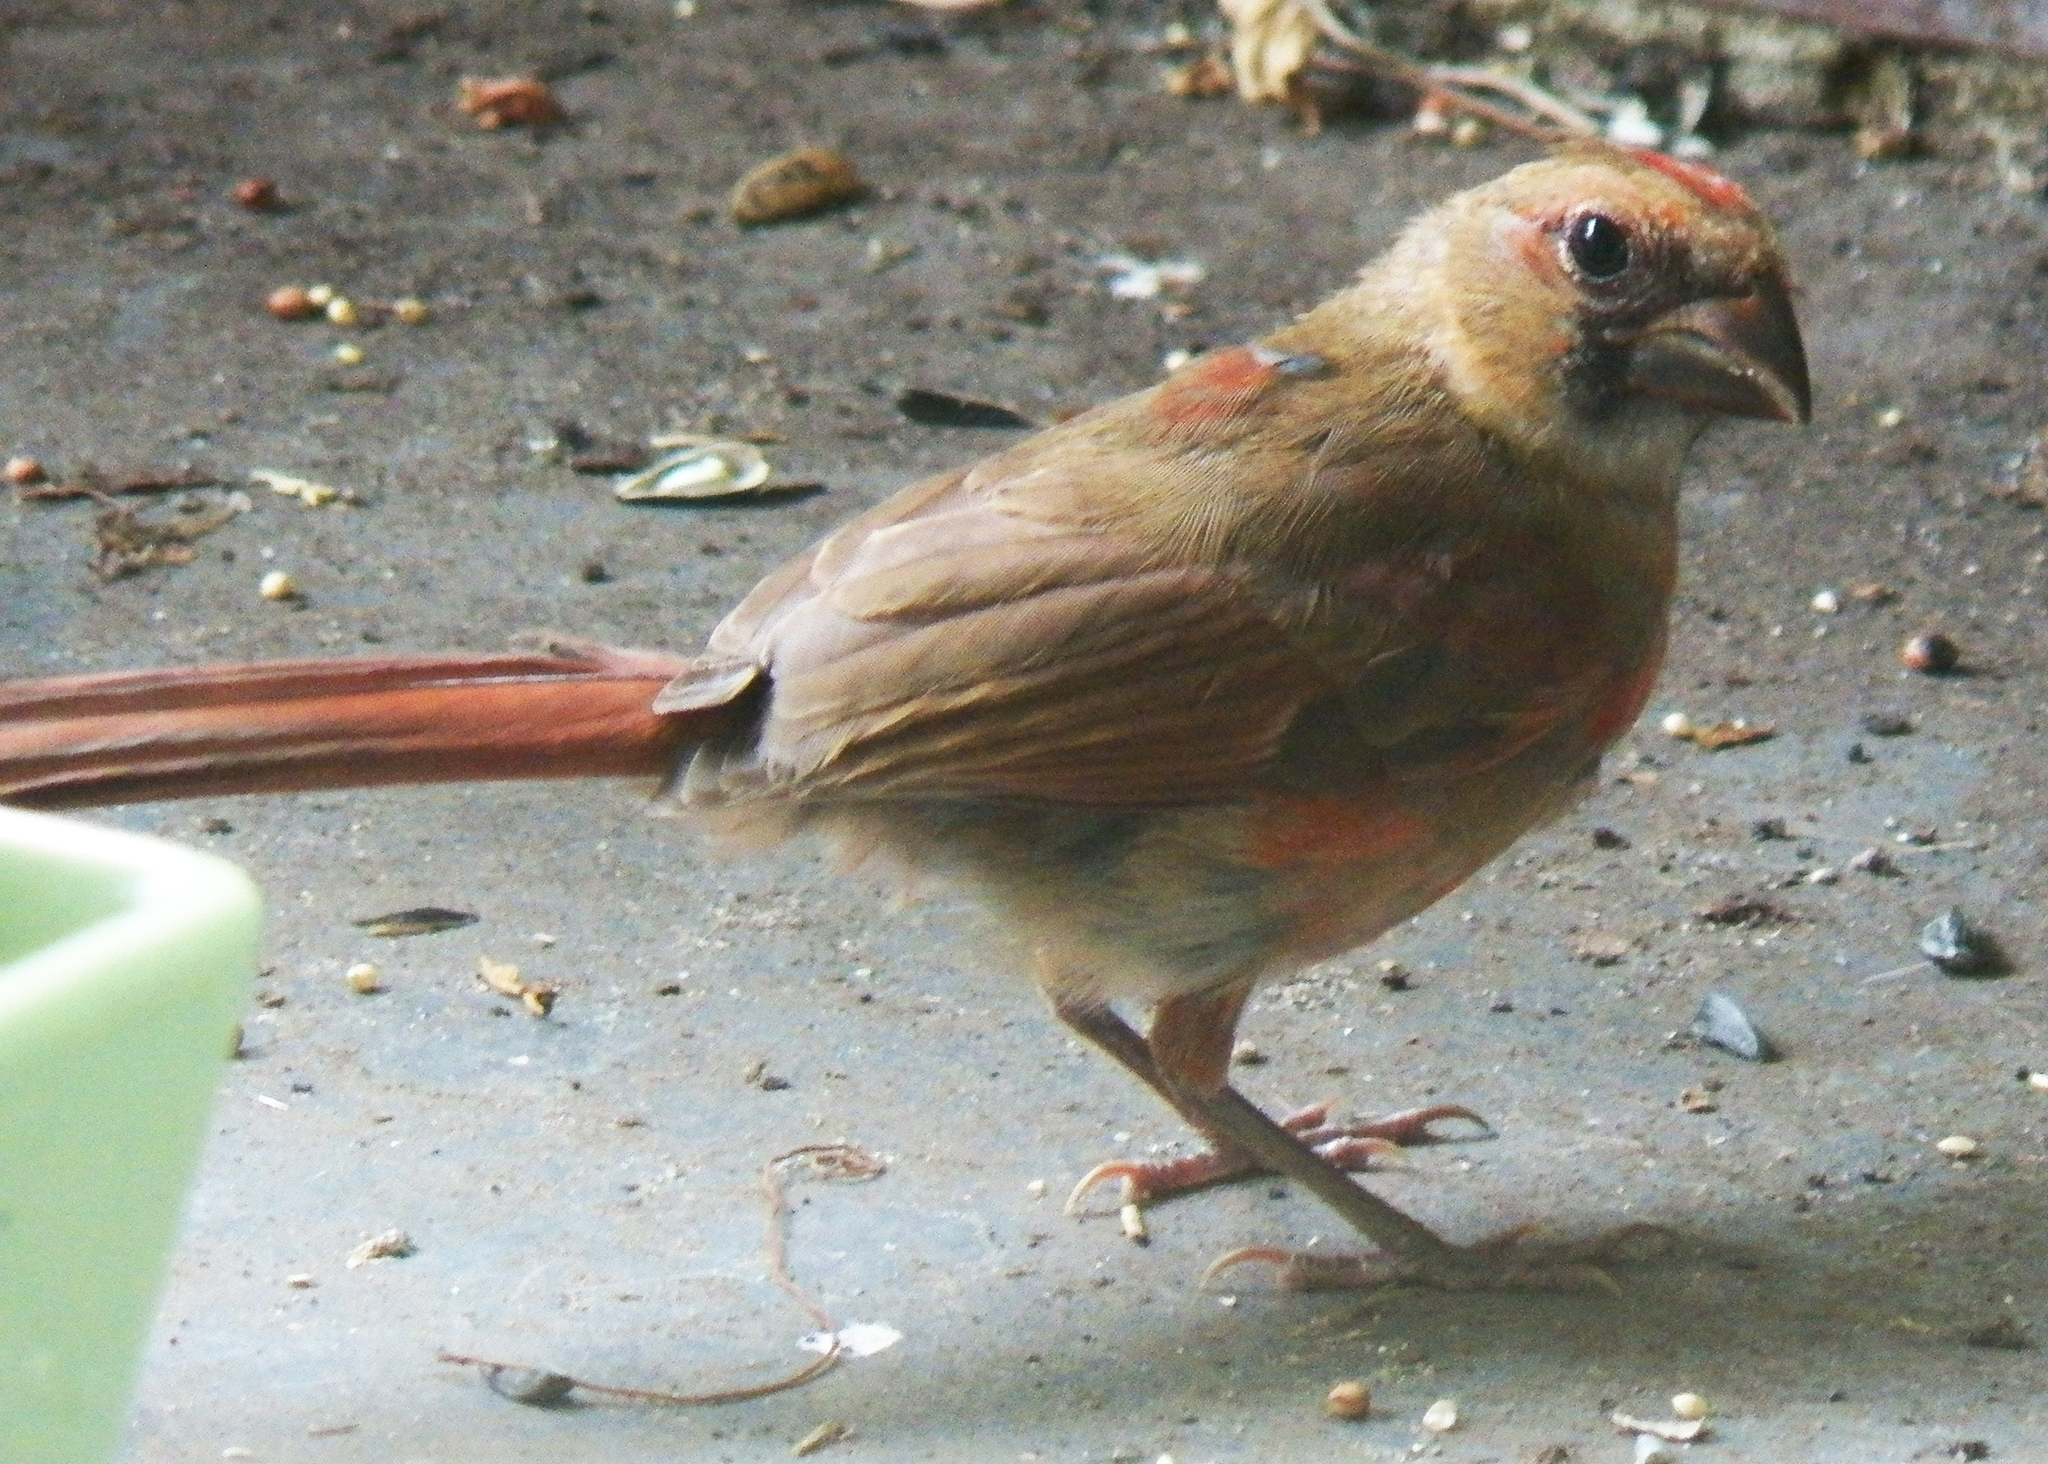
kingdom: Animalia
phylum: Chordata
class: Aves
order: Passeriformes
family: Cardinalidae
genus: Cardinalis
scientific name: Cardinalis cardinalis
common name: Northern cardinal
